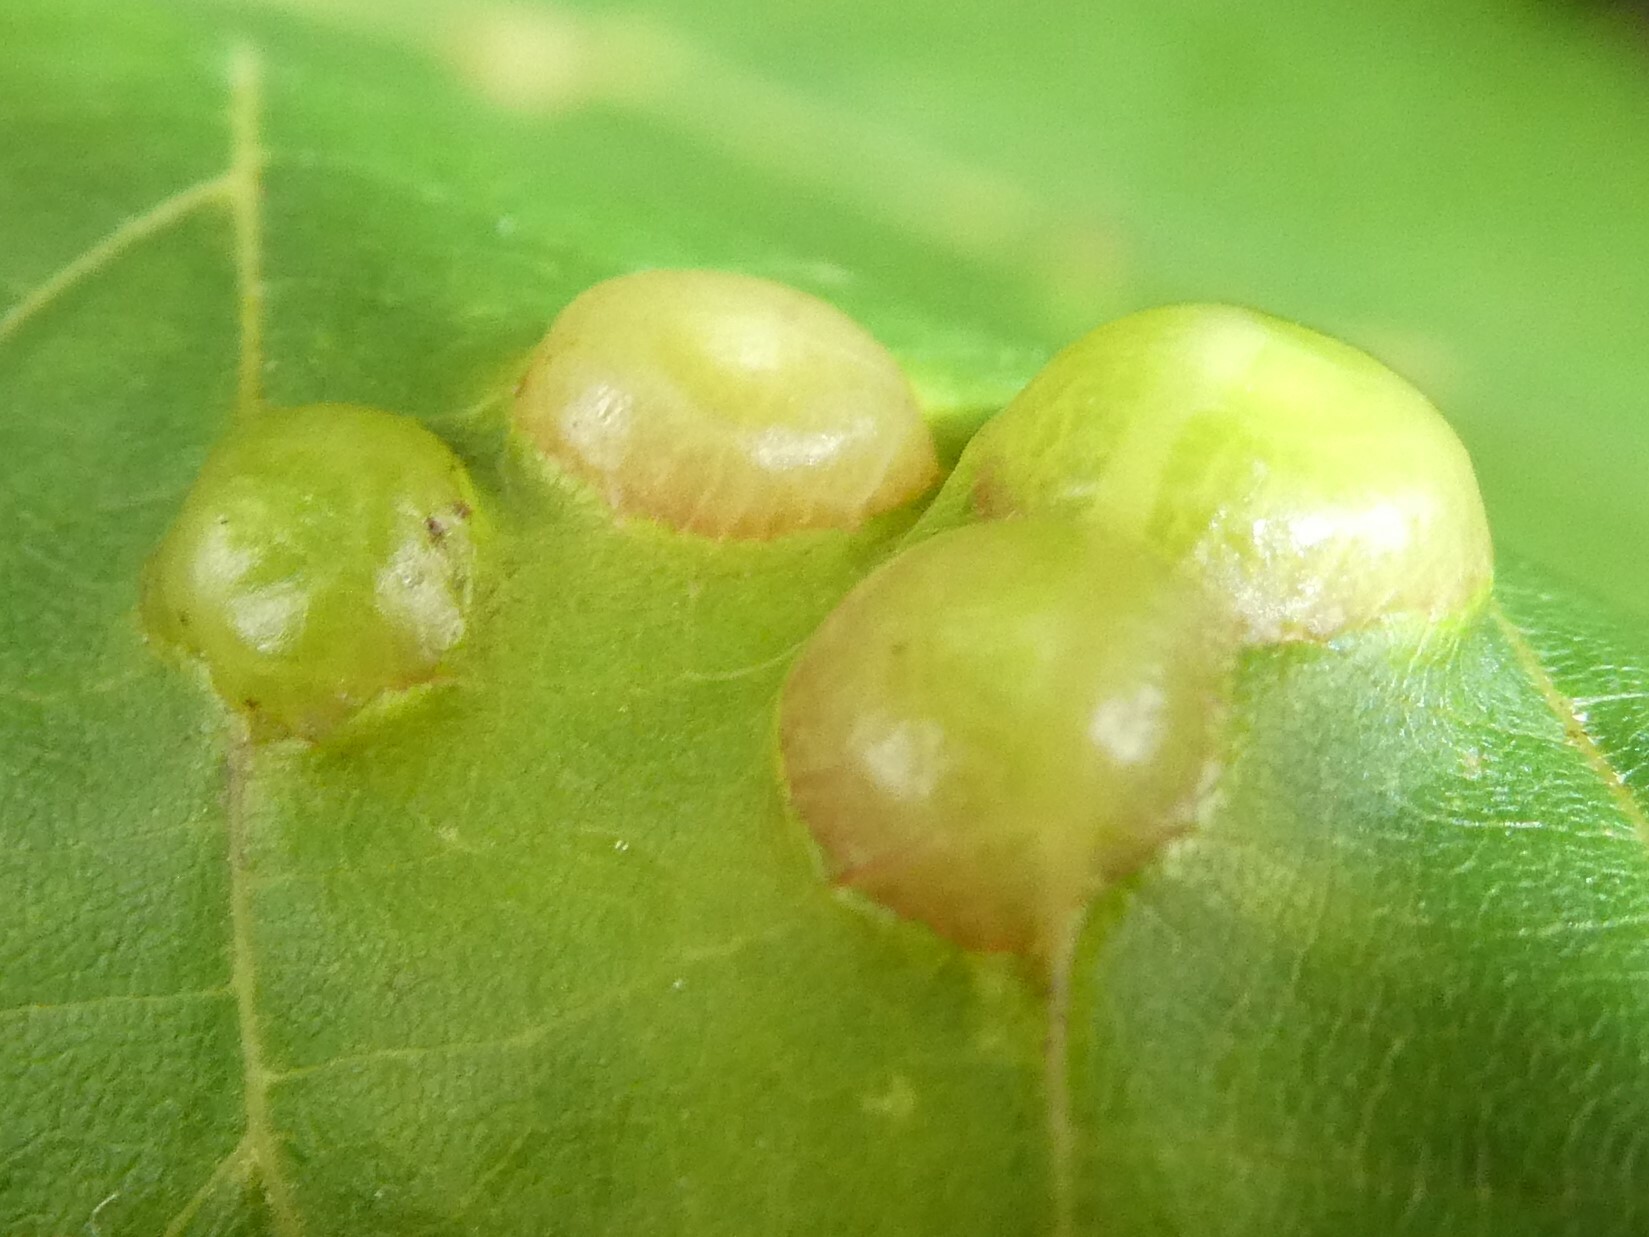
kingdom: Animalia
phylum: Arthropoda
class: Insecta
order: Diptera
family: Cecidomyiidae
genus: Contarinia
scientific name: Contarinia verrucicola
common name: Linden wart gall midge
